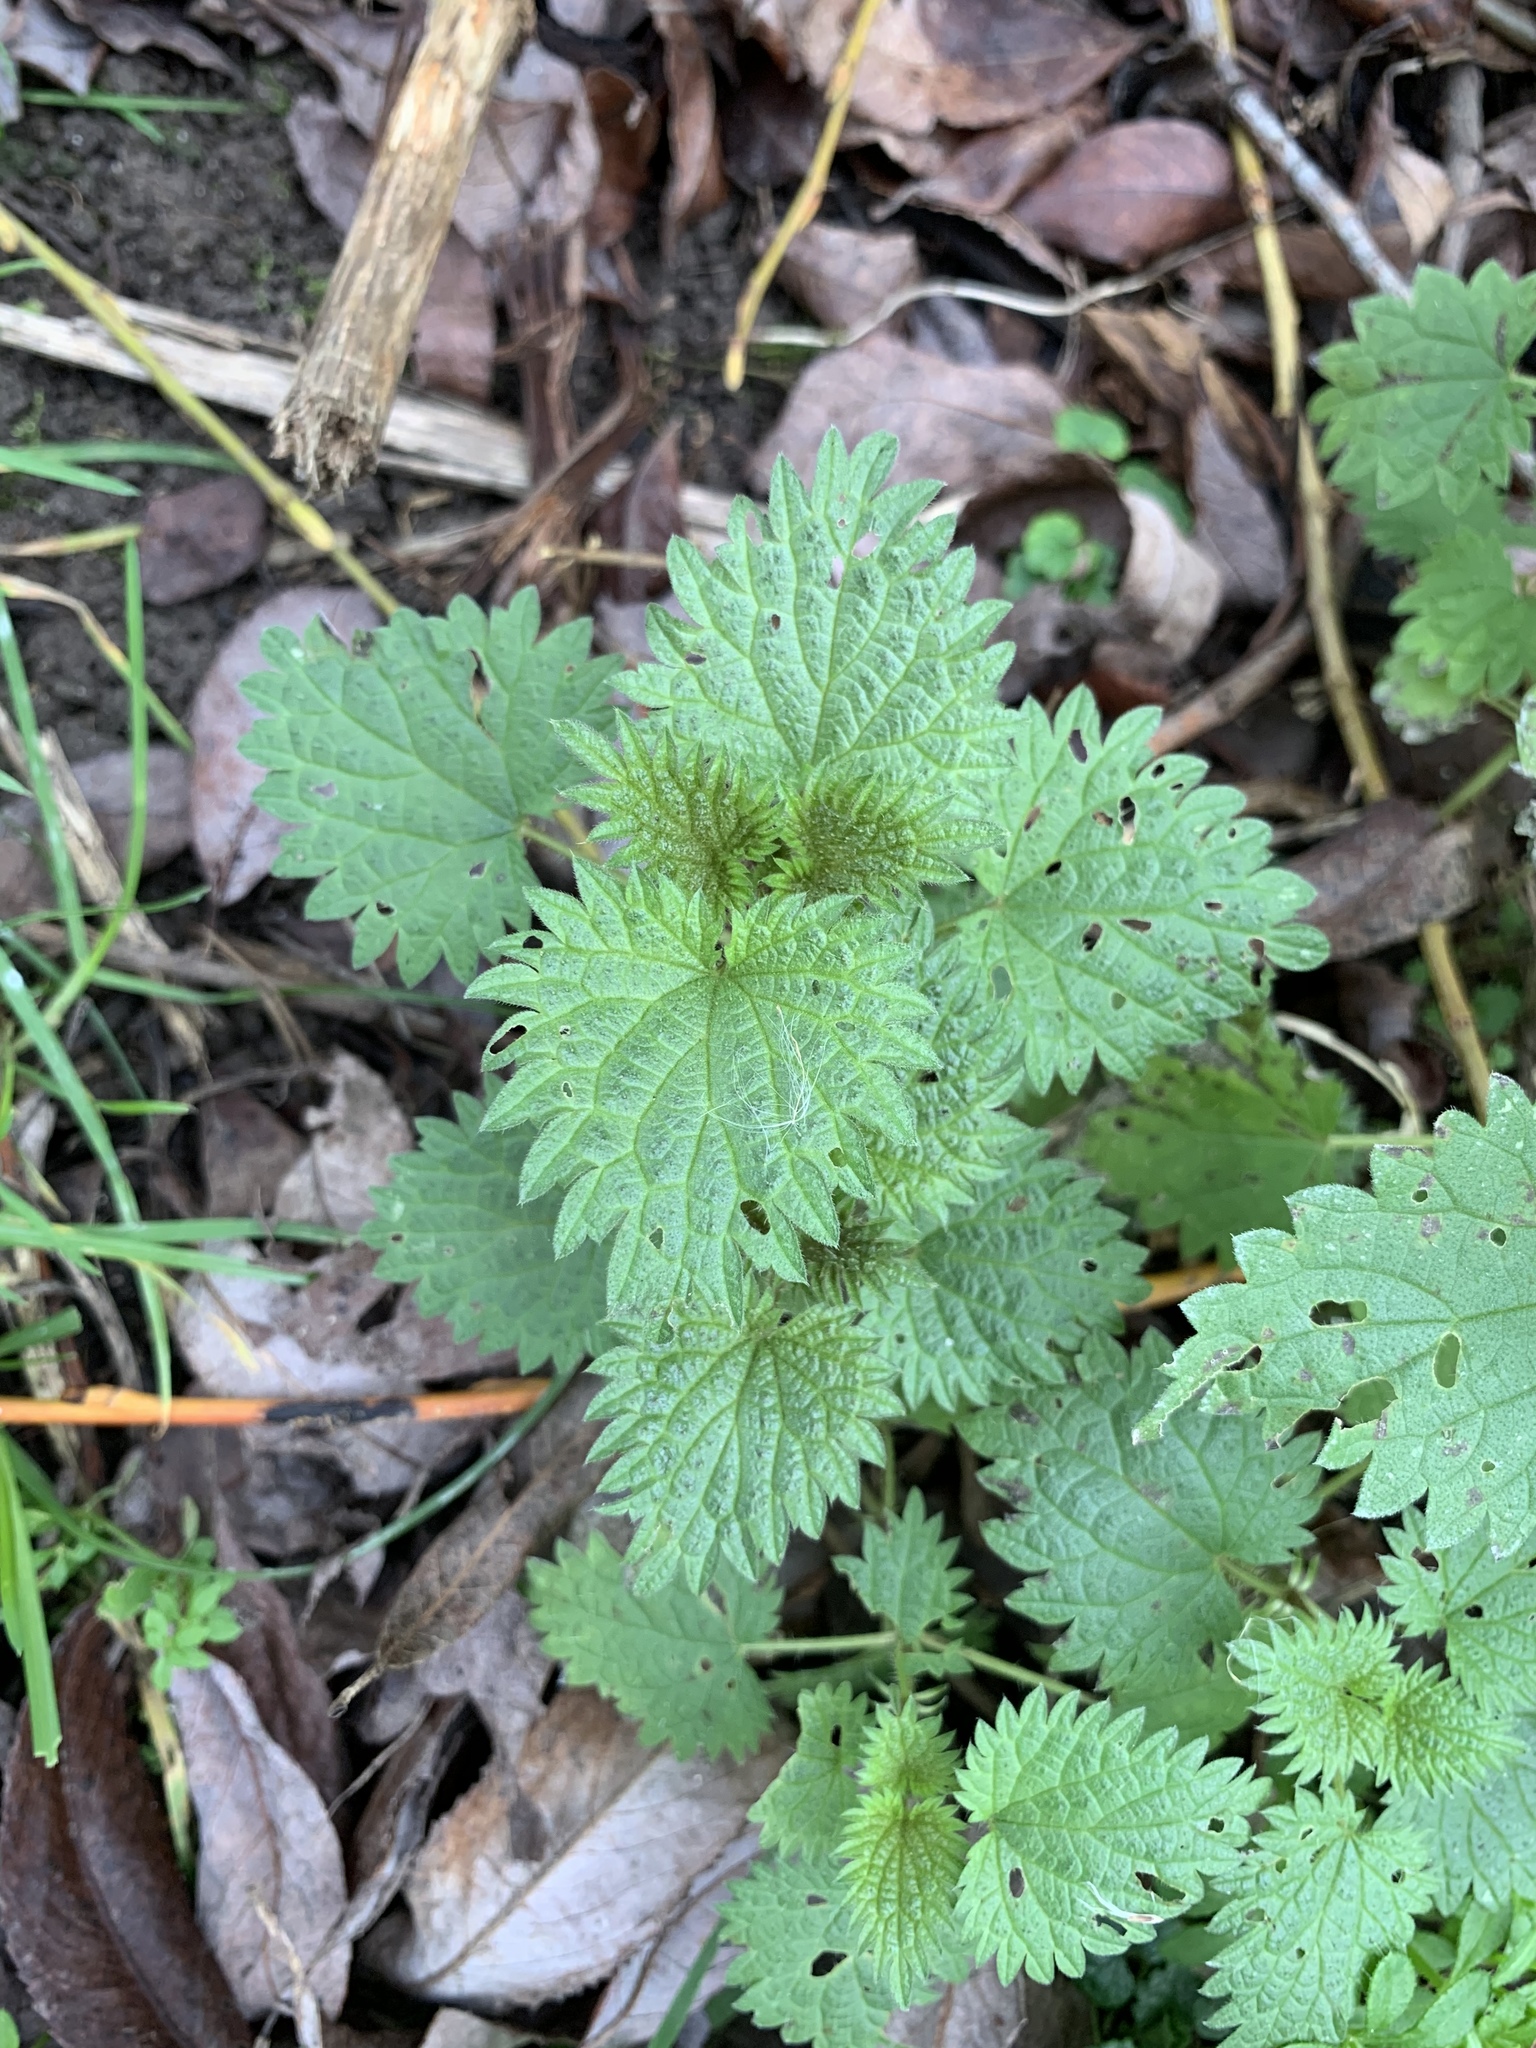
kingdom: Plantae
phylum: Tracheophyta
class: Magnoliopsida
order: Rosales
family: Urticaceae
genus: Urtica
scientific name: Urtica dioica
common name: Common nettle
